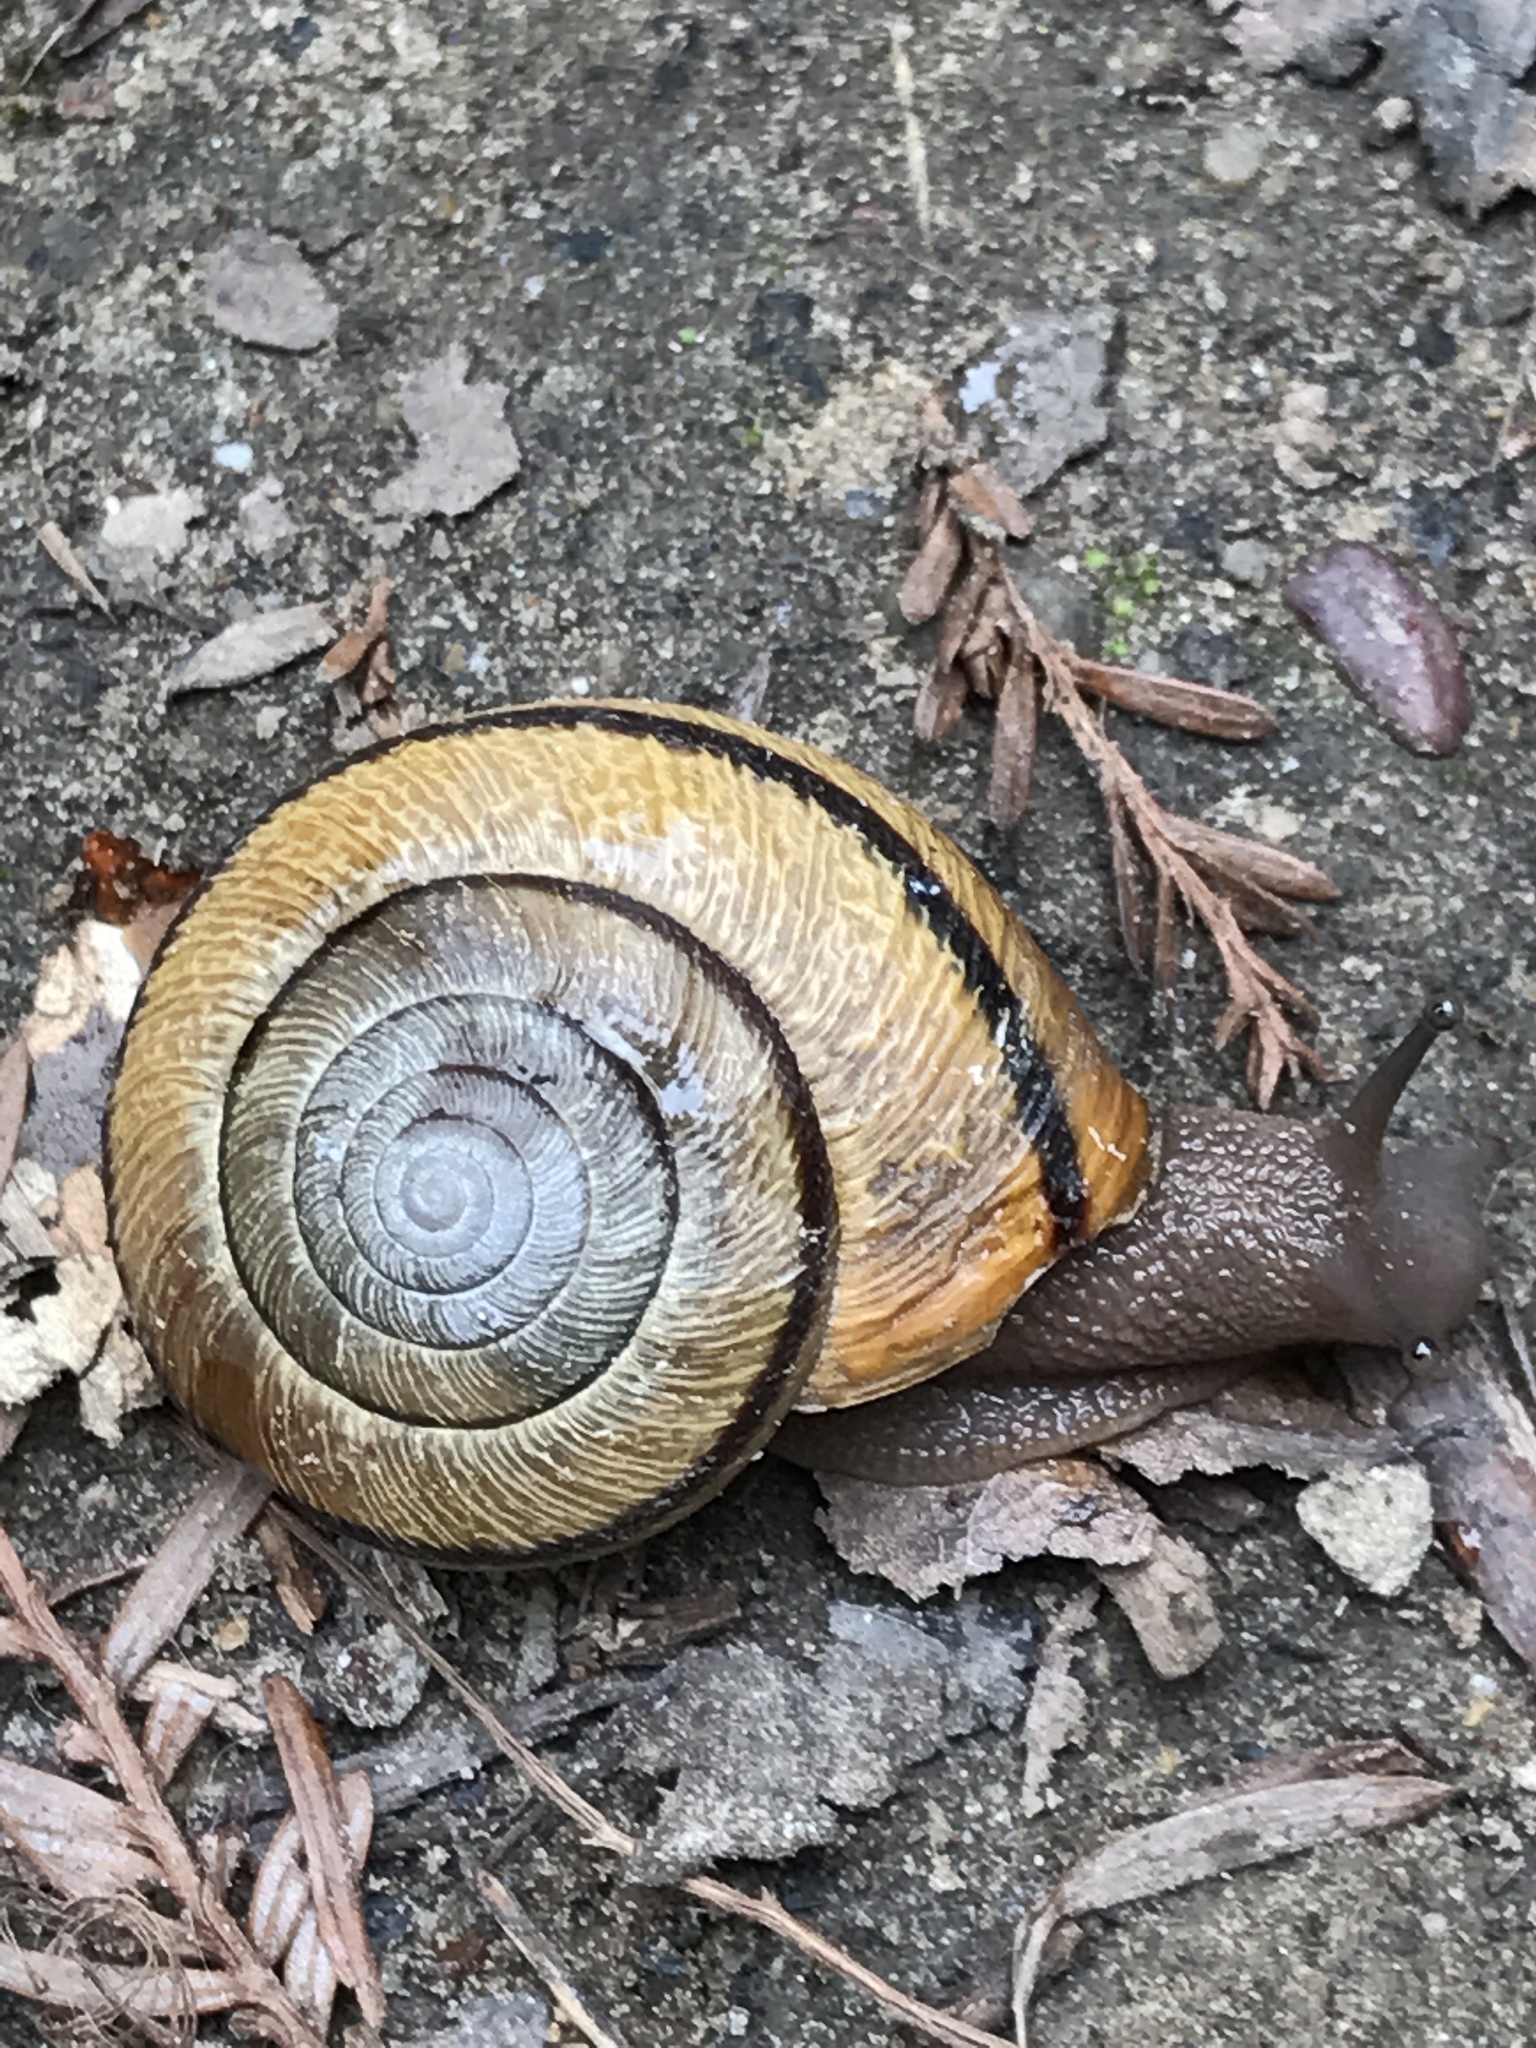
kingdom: Animalia
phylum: Mollusca
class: Gastropoda
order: Stylommatophora
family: Xanthonychidae
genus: Helminthoglypta
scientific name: Helminthoglypta exarata
